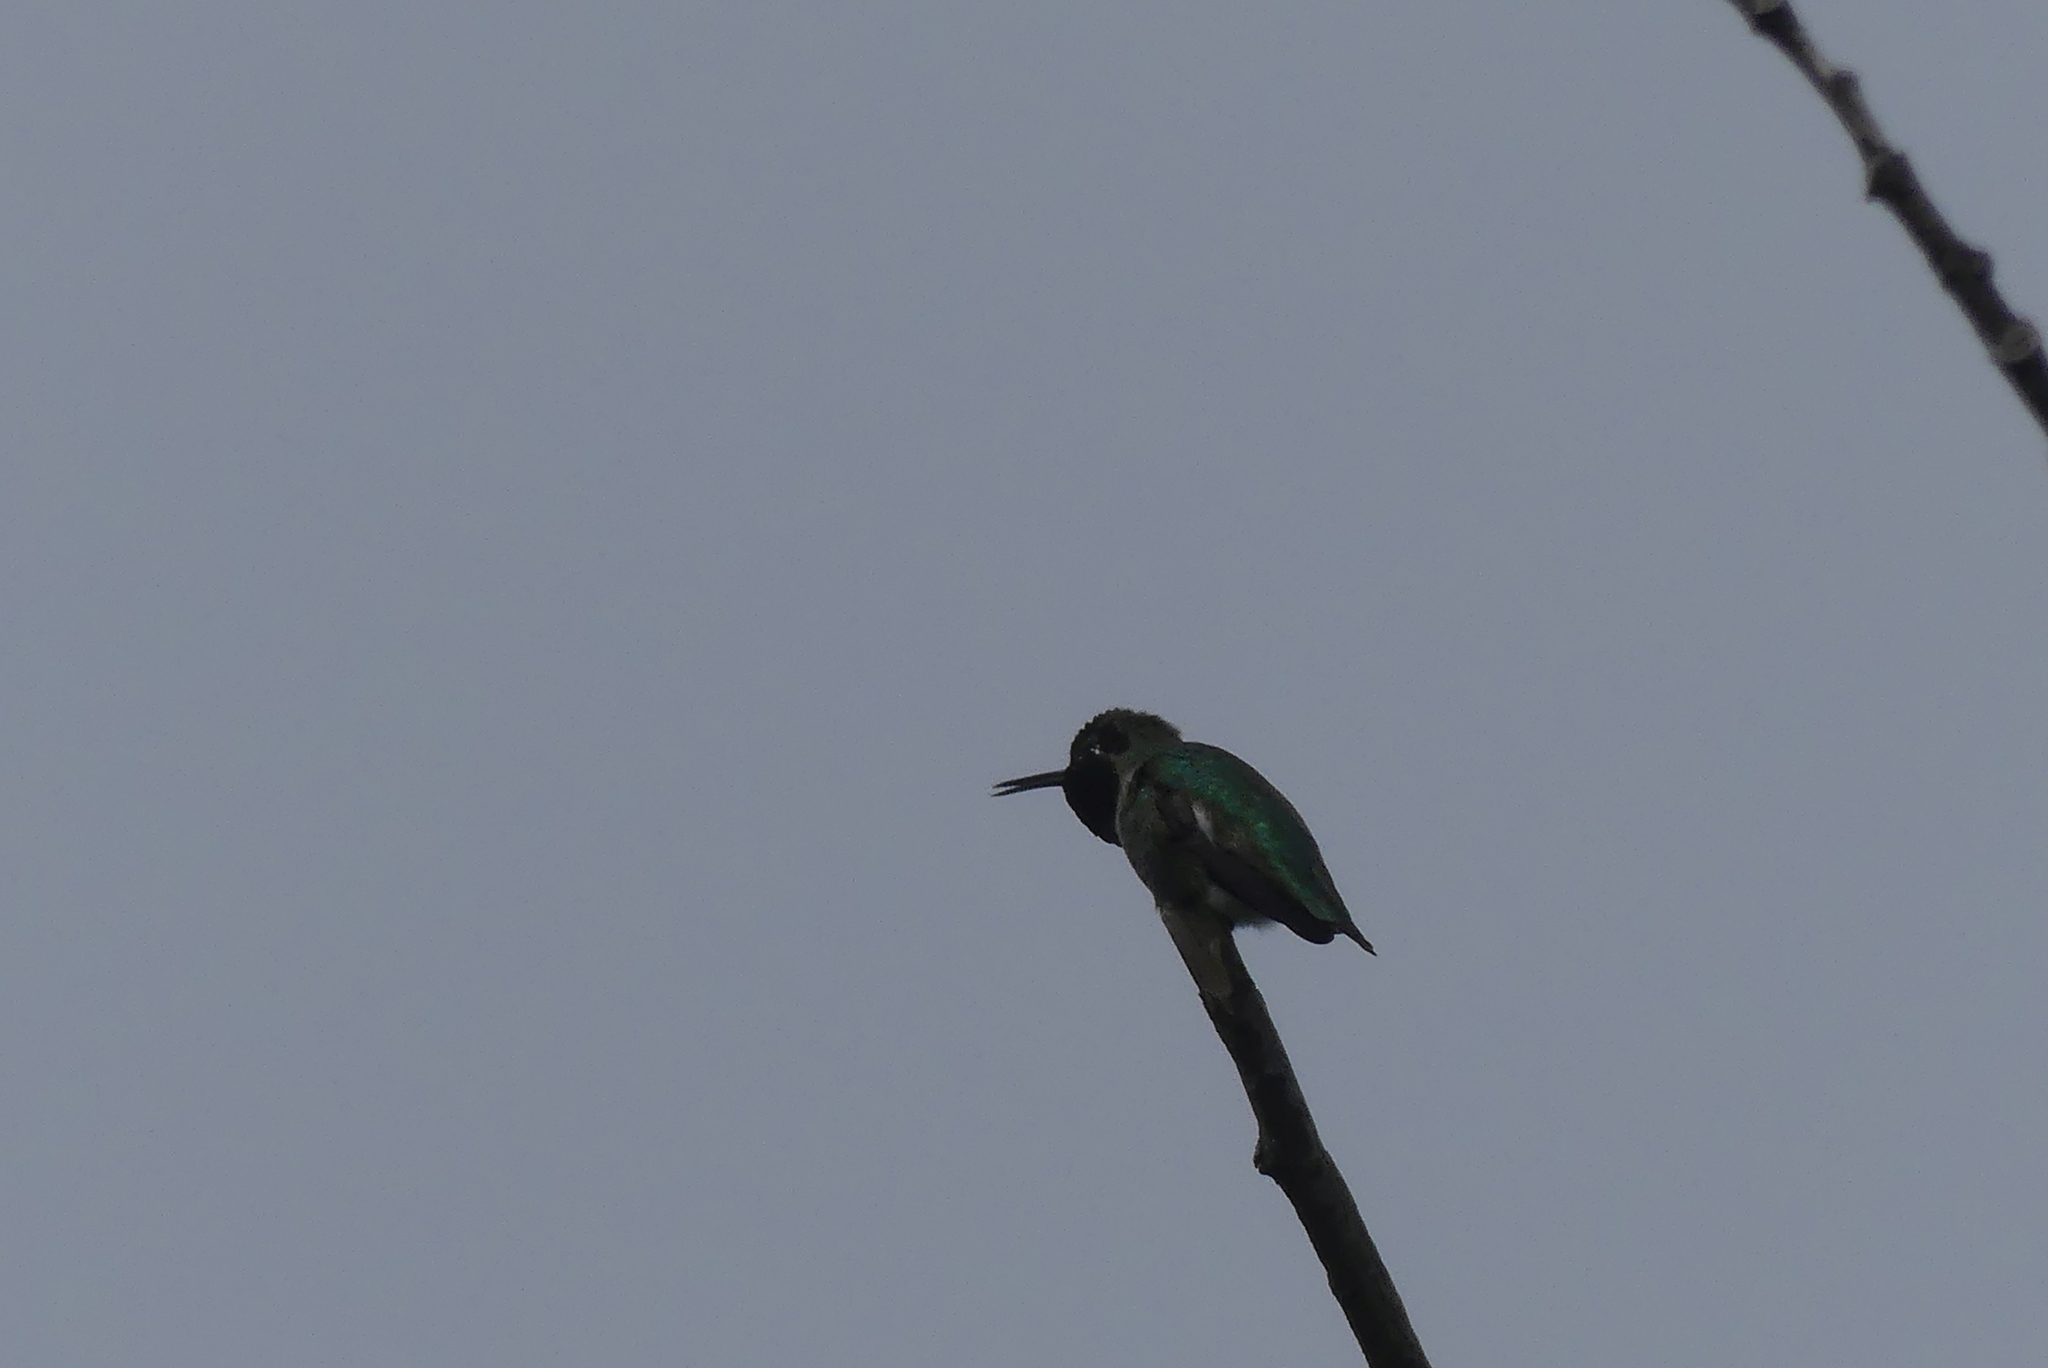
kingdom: Animalia
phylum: Chordata
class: Aves
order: Apodiformes
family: Trochilidae
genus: Calypte
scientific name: Calypte anna
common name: Anna's hummingbird
